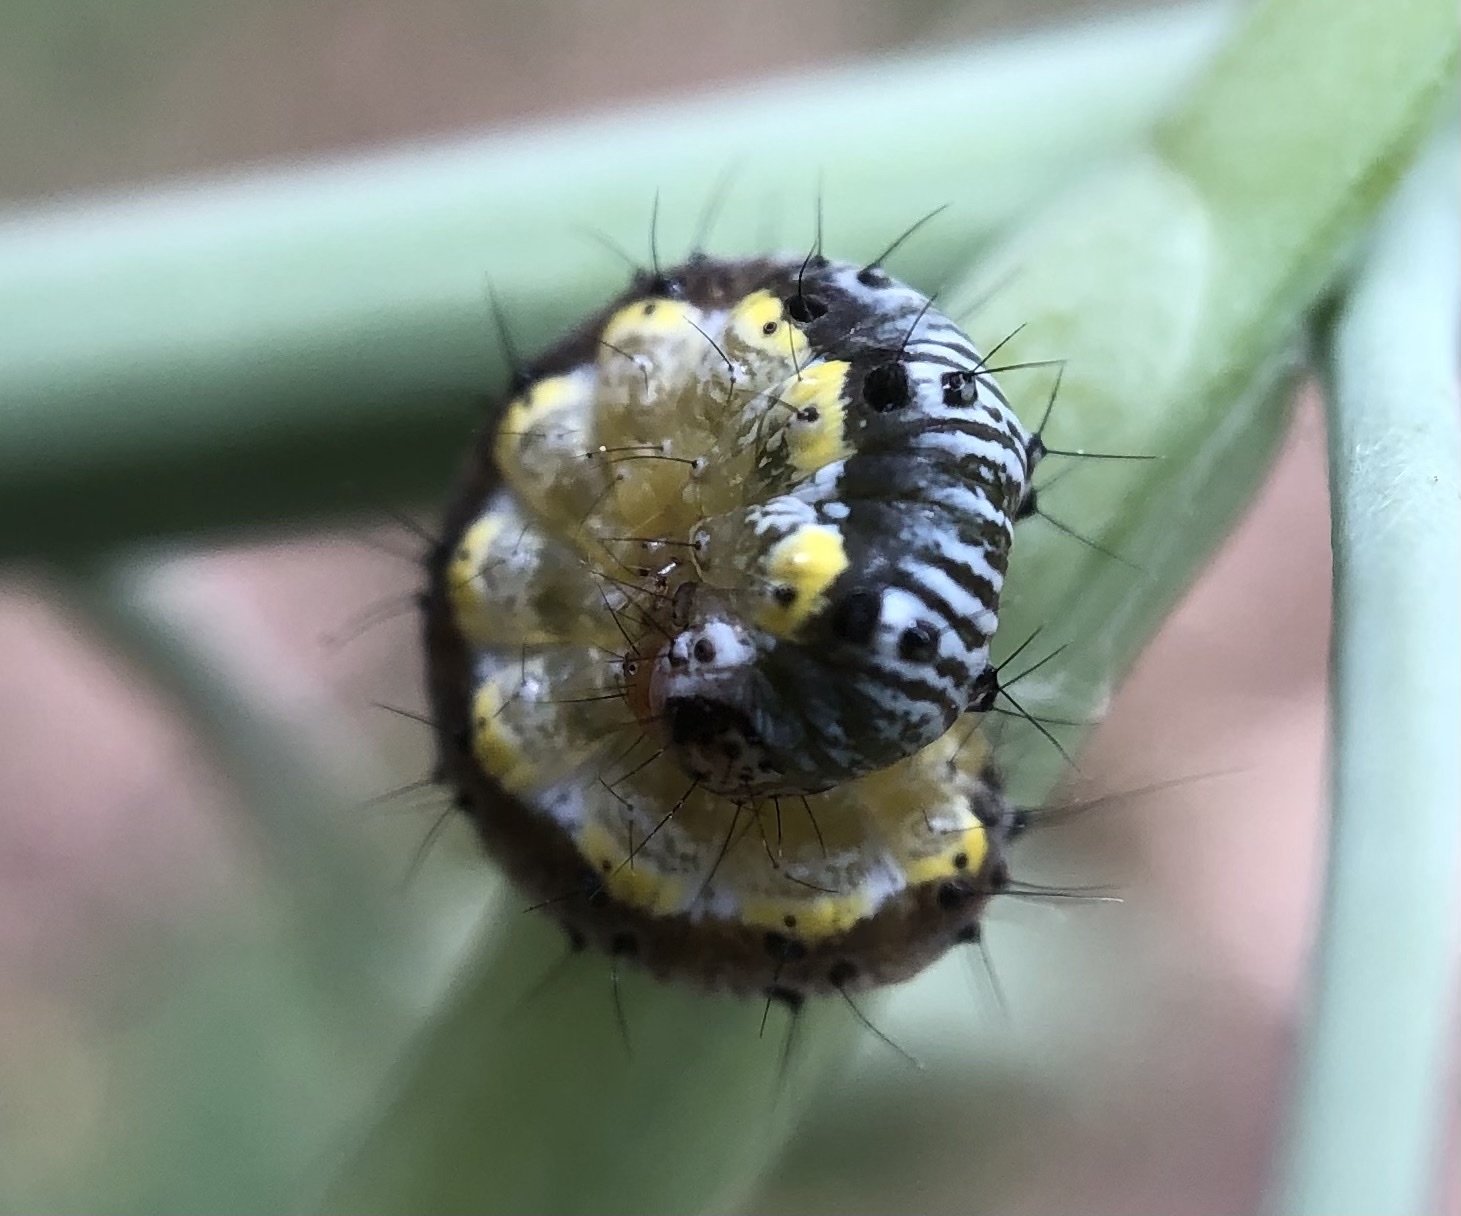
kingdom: Animalia
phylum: Arthropoda
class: Insecta
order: Lepidoptera
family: Crambidae
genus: Evergestis
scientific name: Evergestis rimosalis
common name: Cross-striped cabbageworm moth
